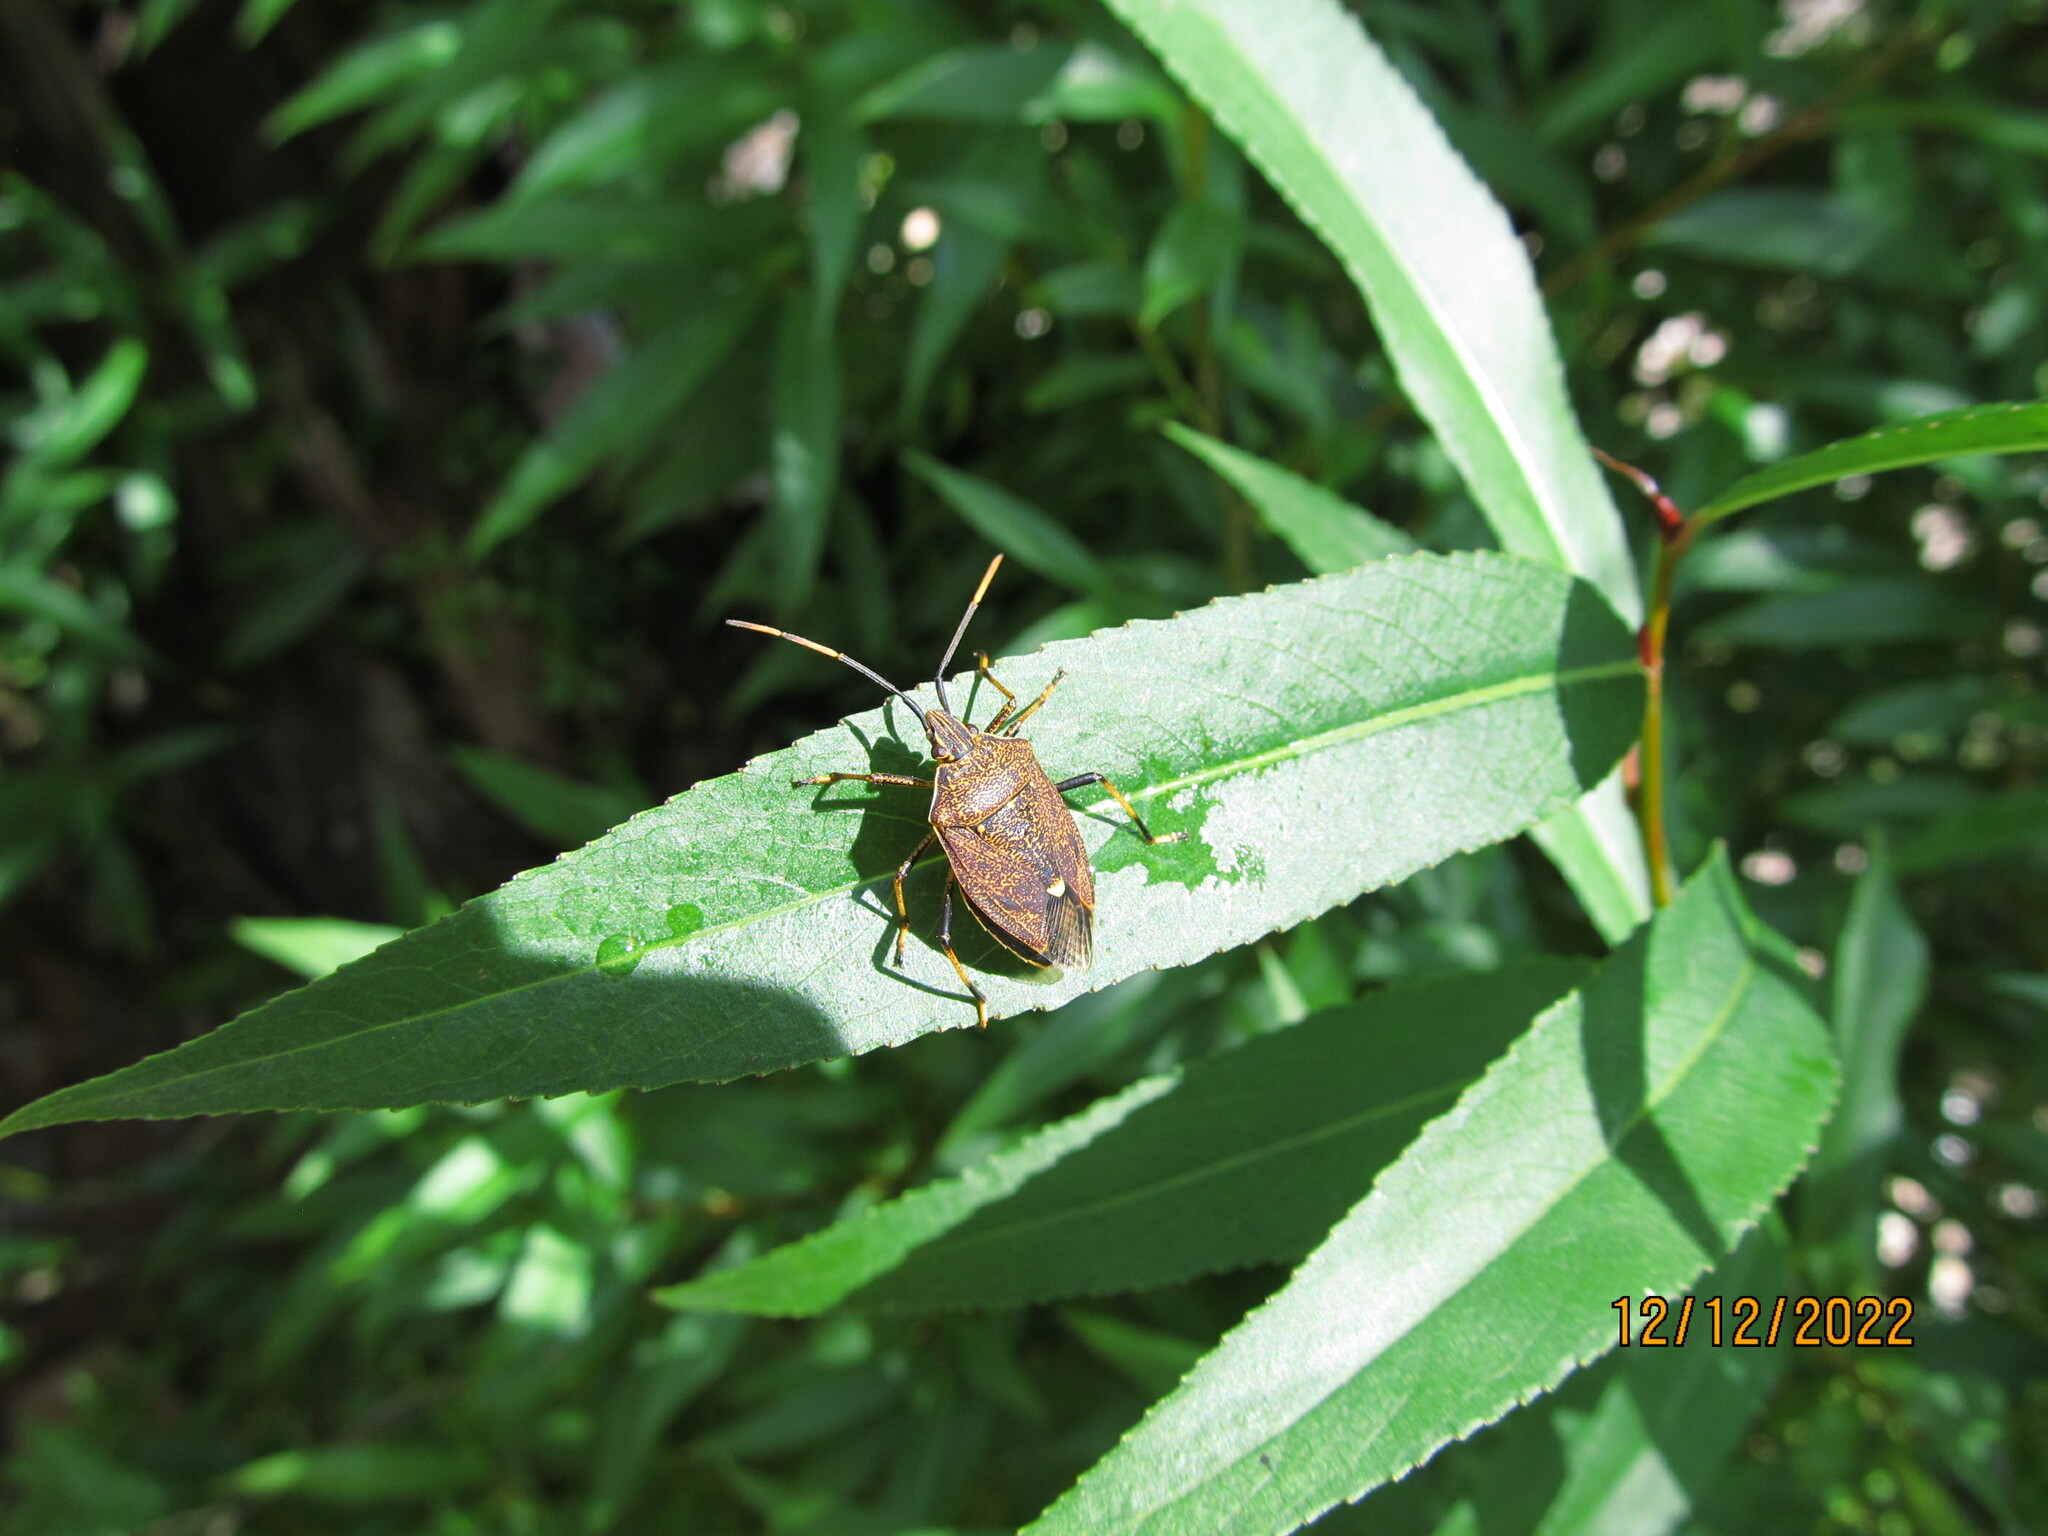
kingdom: Animalia
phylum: Arthropoda
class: Insecta
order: Hemiptera
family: Pentatomidae
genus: Poecilometis
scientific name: Poecilometis
